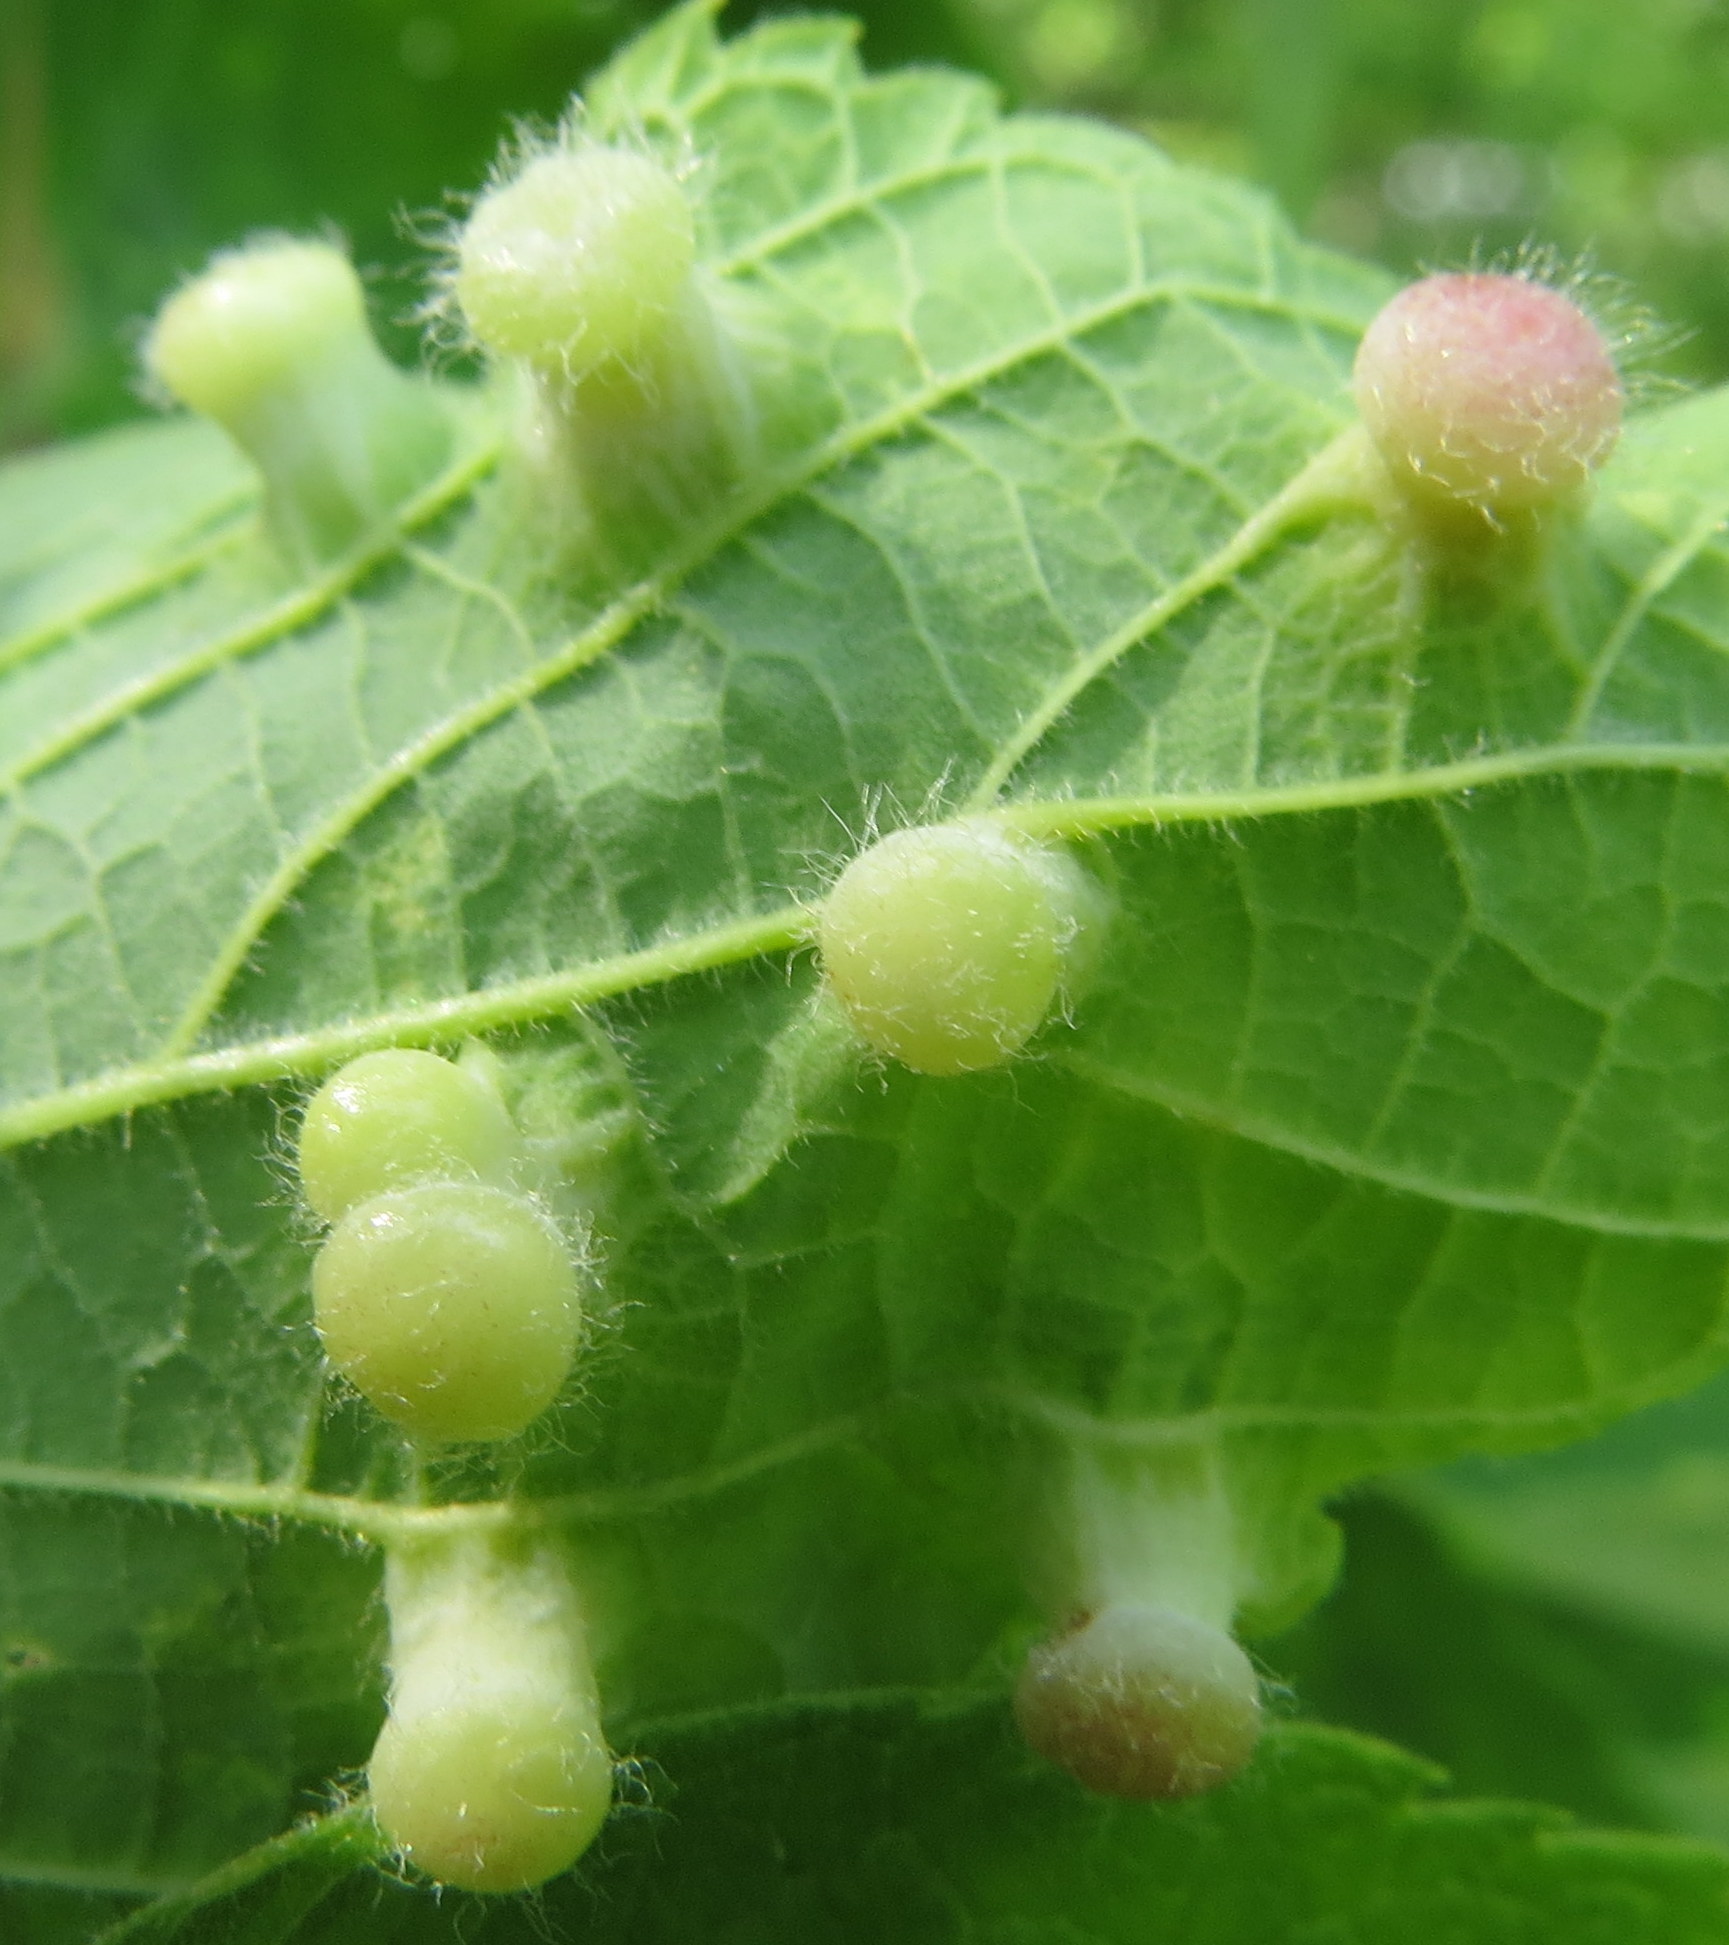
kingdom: Animalia
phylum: Arthropoda
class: Insecta
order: Hemiptera
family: Aphalaridae
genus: Pachypsylla
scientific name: Pachypsylla celtidismamma
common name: Hackberry nipplegall psyllid
